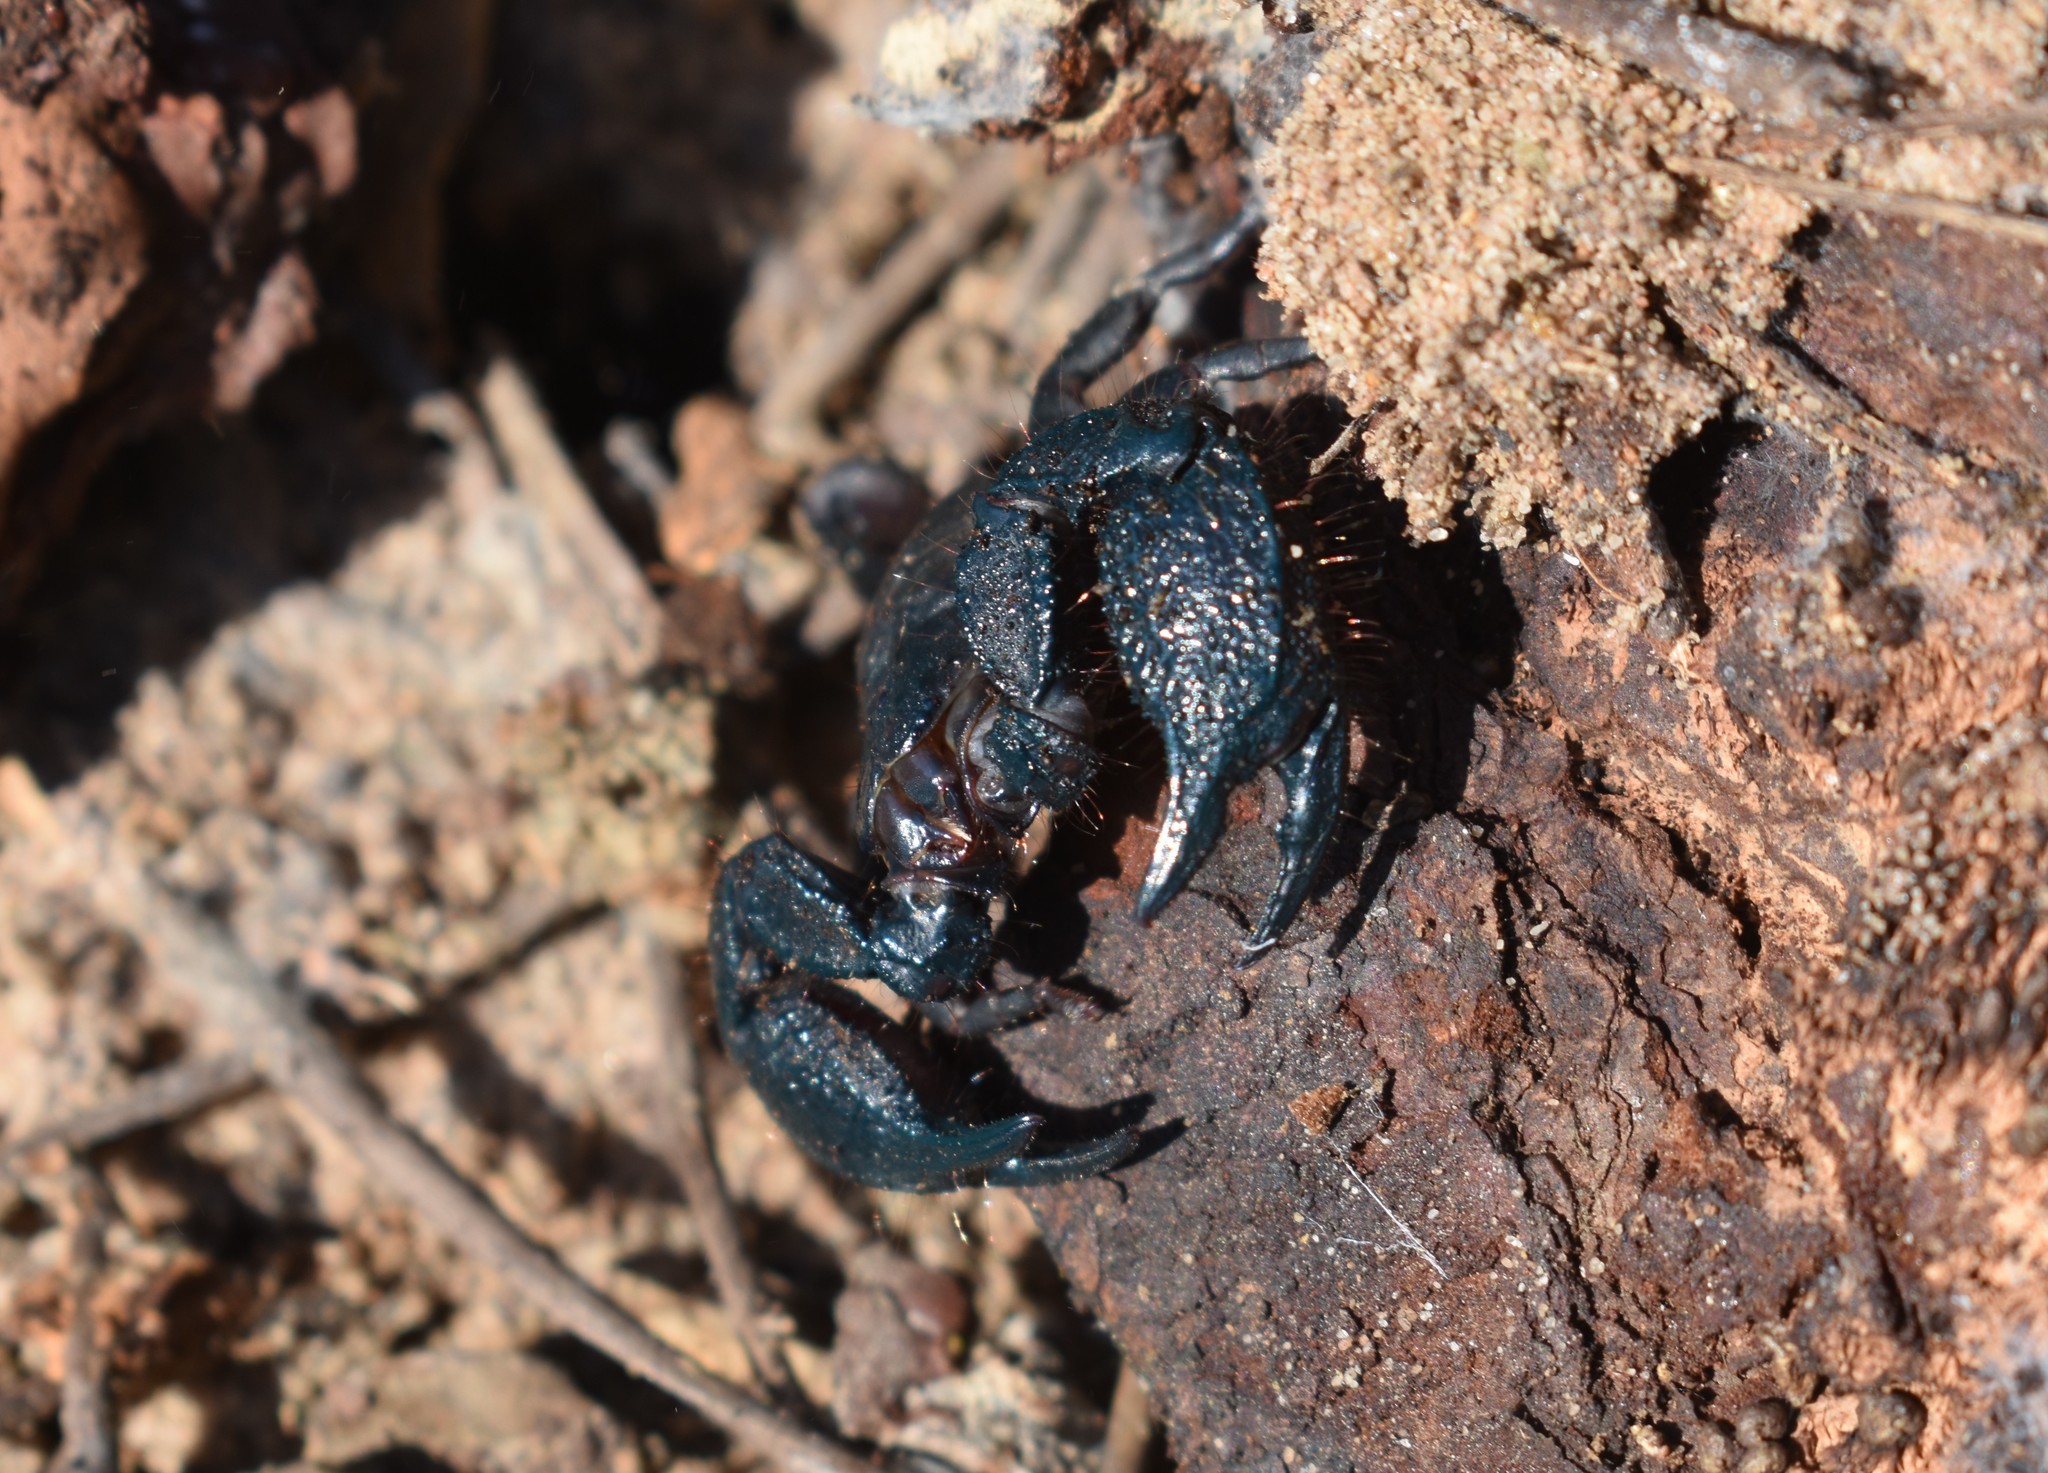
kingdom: Animalia
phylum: Arthropoda
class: Arachnida
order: Scorpiones
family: Hormuridae
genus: Opisthacanthus
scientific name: Opisthacanthus capensis
